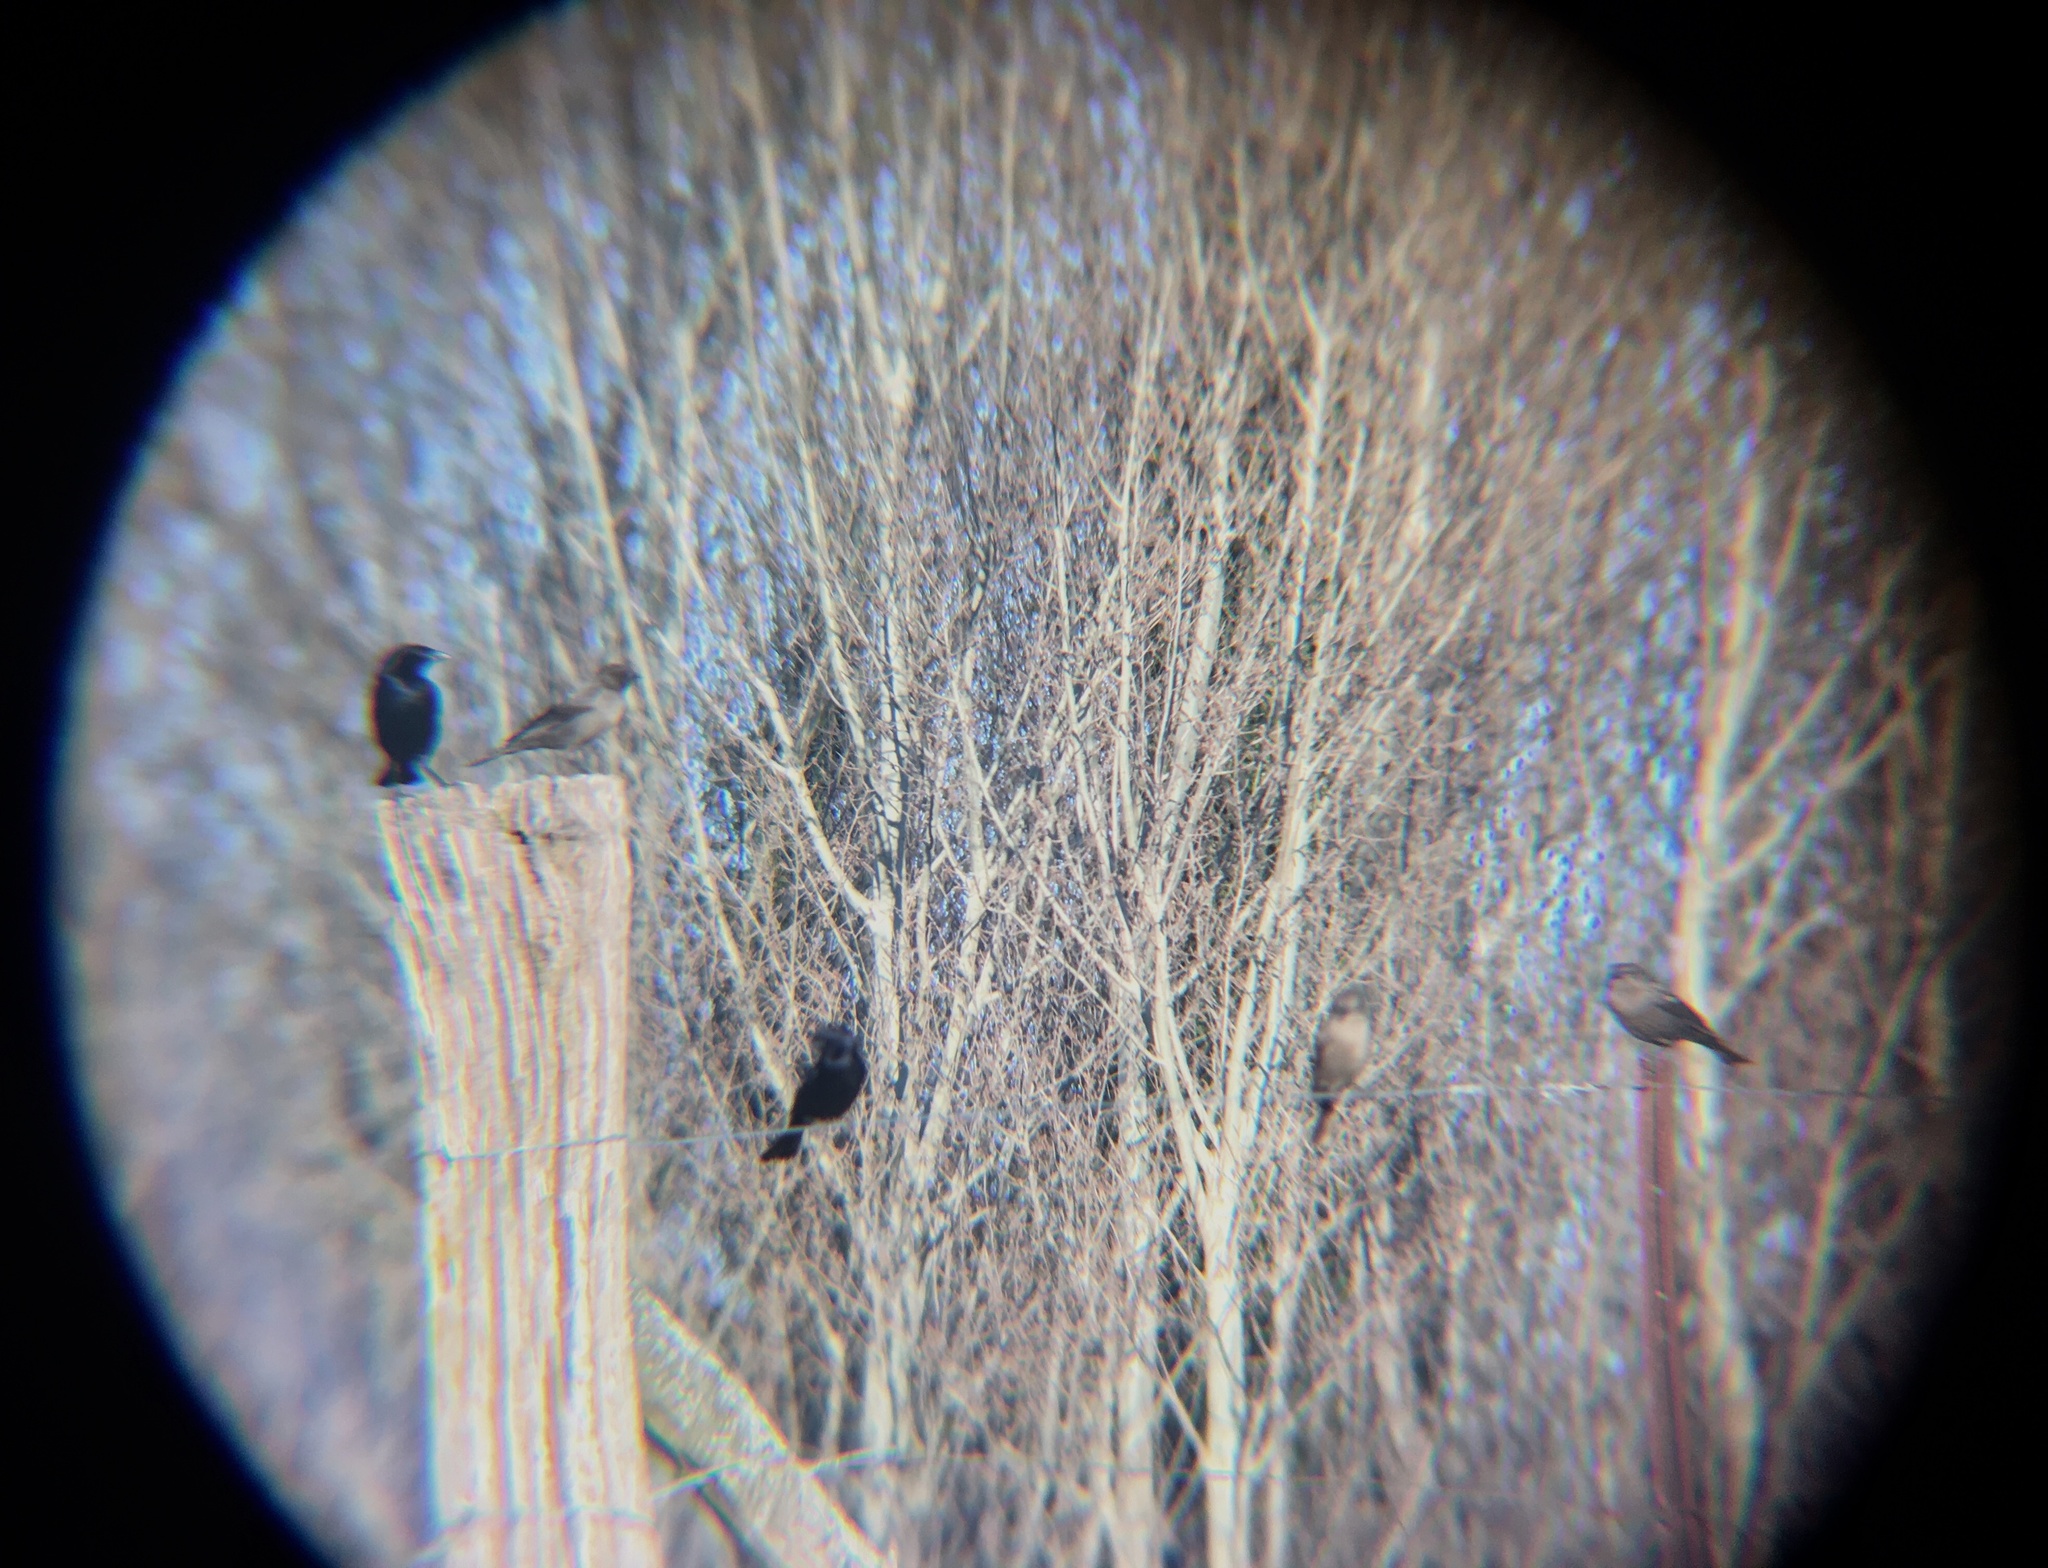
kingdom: Animalia
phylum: Chordata
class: Aves
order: Passeriformes
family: Icteridae
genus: Molothrus
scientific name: Molothrus bonariensis
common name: Shiny cowbird
